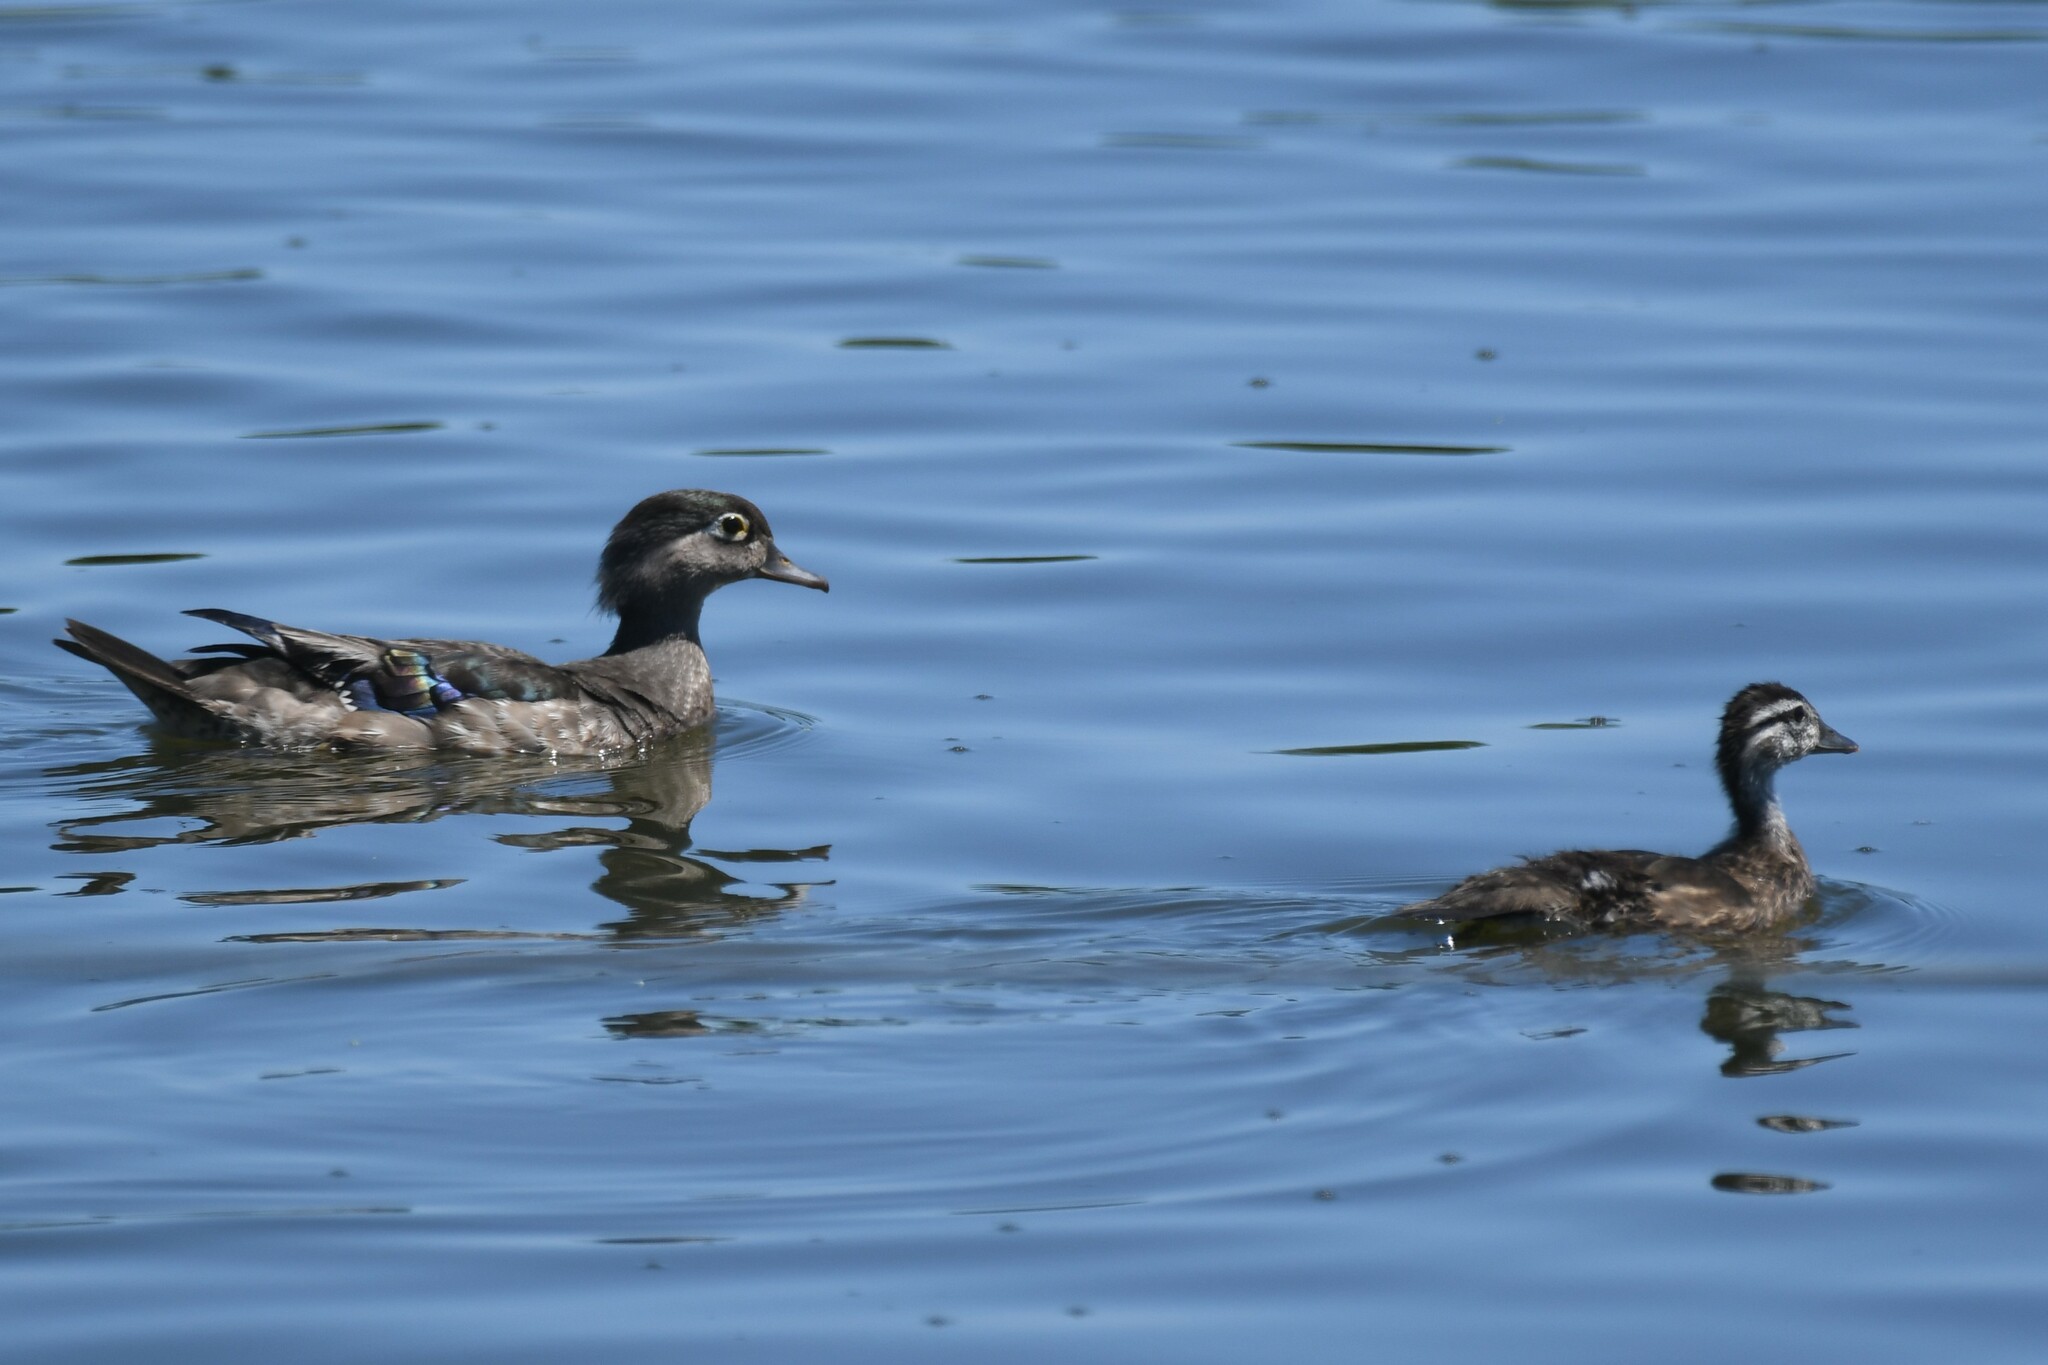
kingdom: Animalia
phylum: Chordata
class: Aves
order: Anseriformes
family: Anatidae
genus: Aix
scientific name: Aix sponsa
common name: Wood duck
